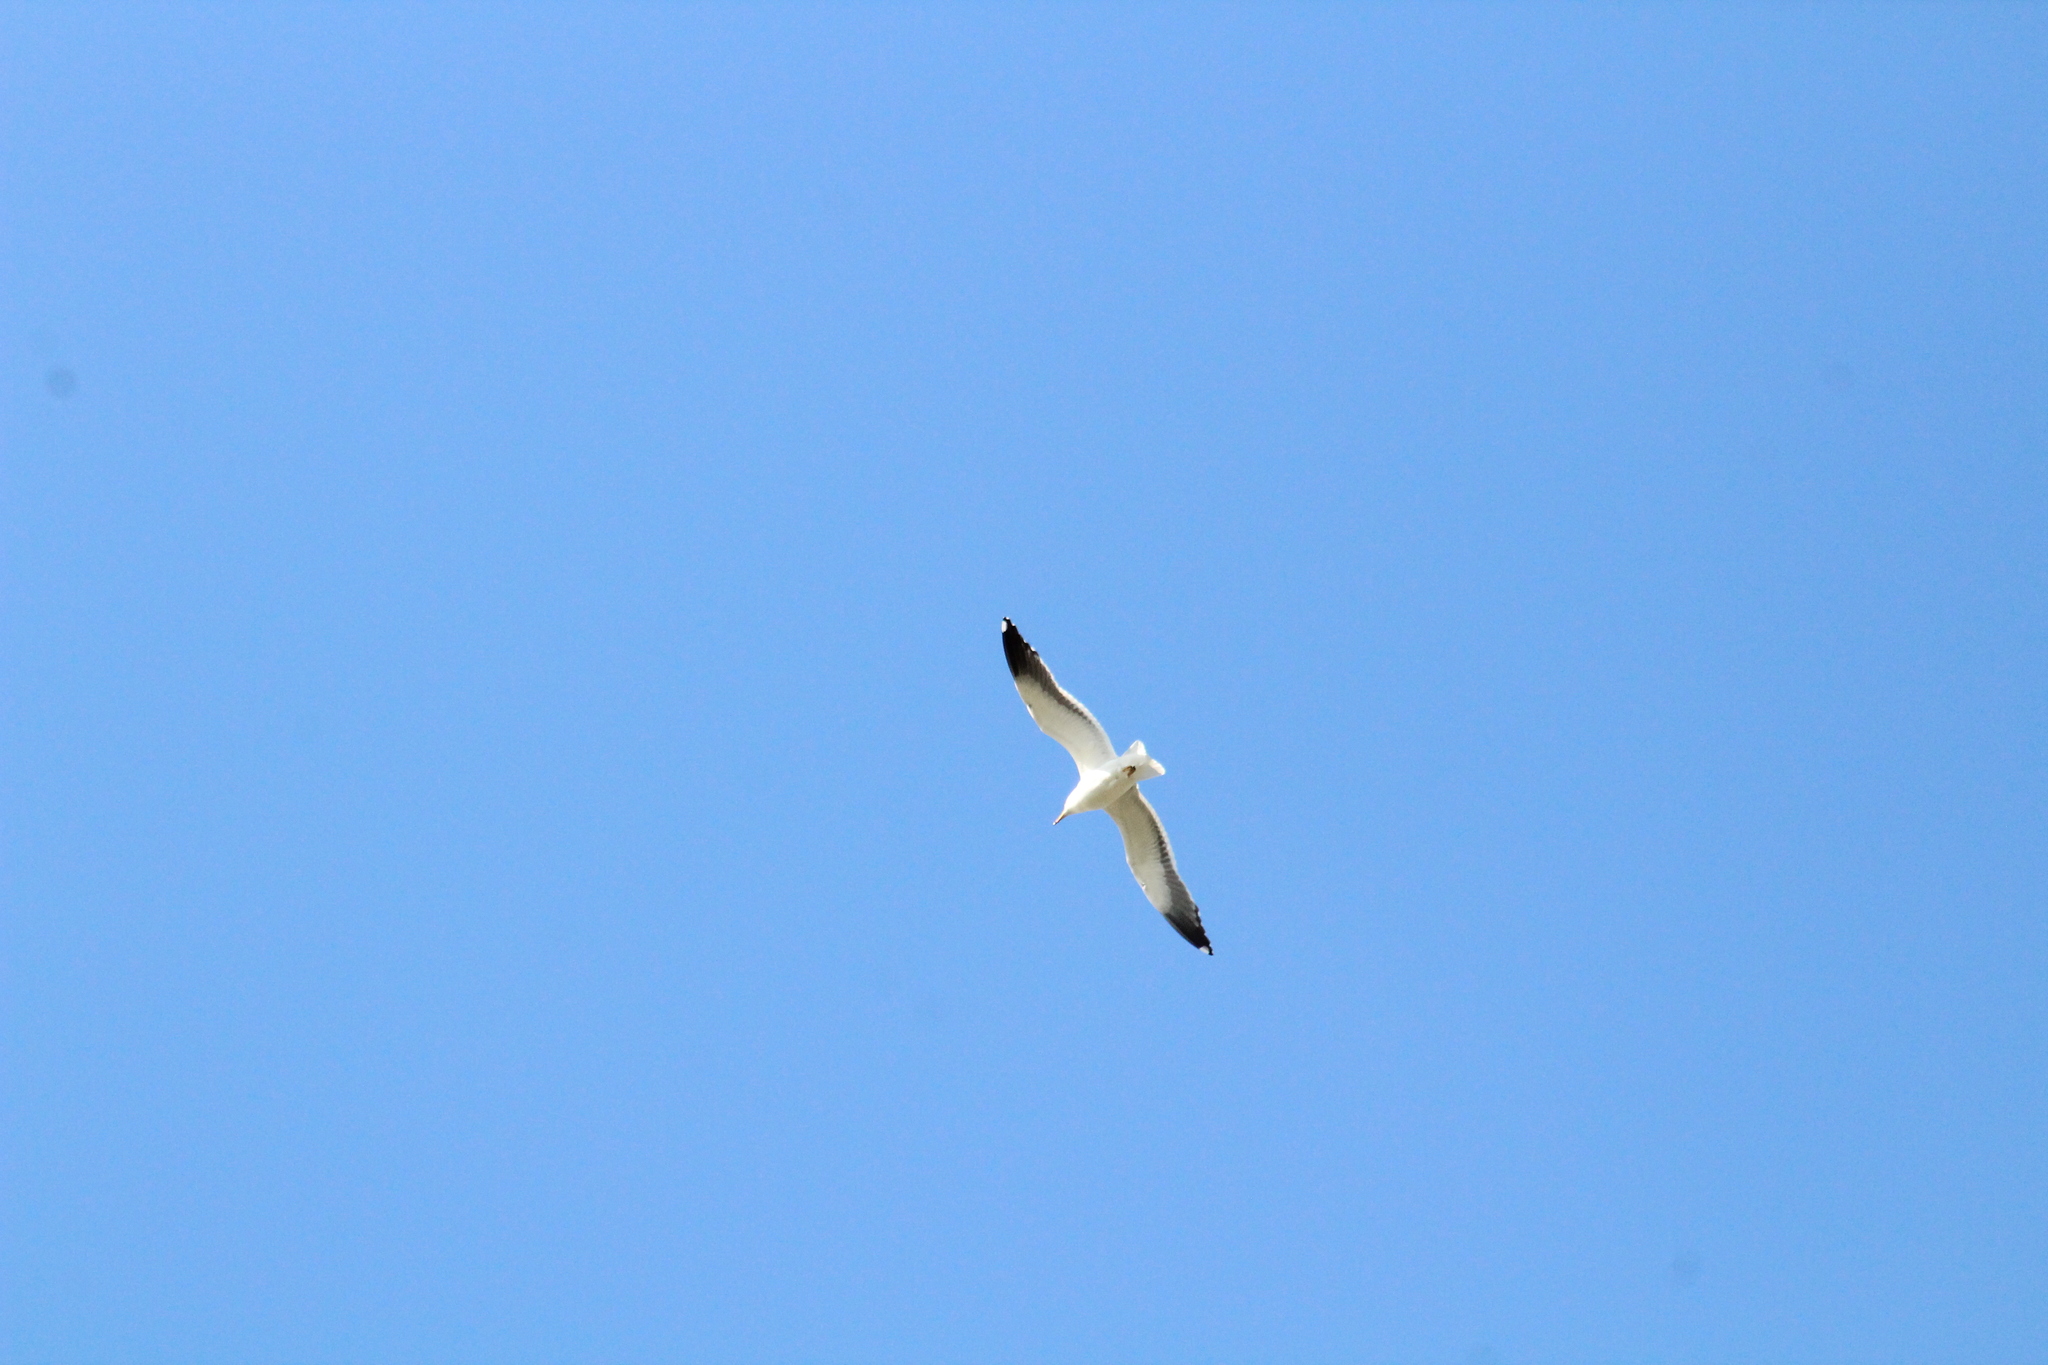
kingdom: Animalia
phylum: Chordata
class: Aves
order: Charadriiformes
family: Laridae
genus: Larus
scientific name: Larus fuscus
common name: Lesser black-backed gull
